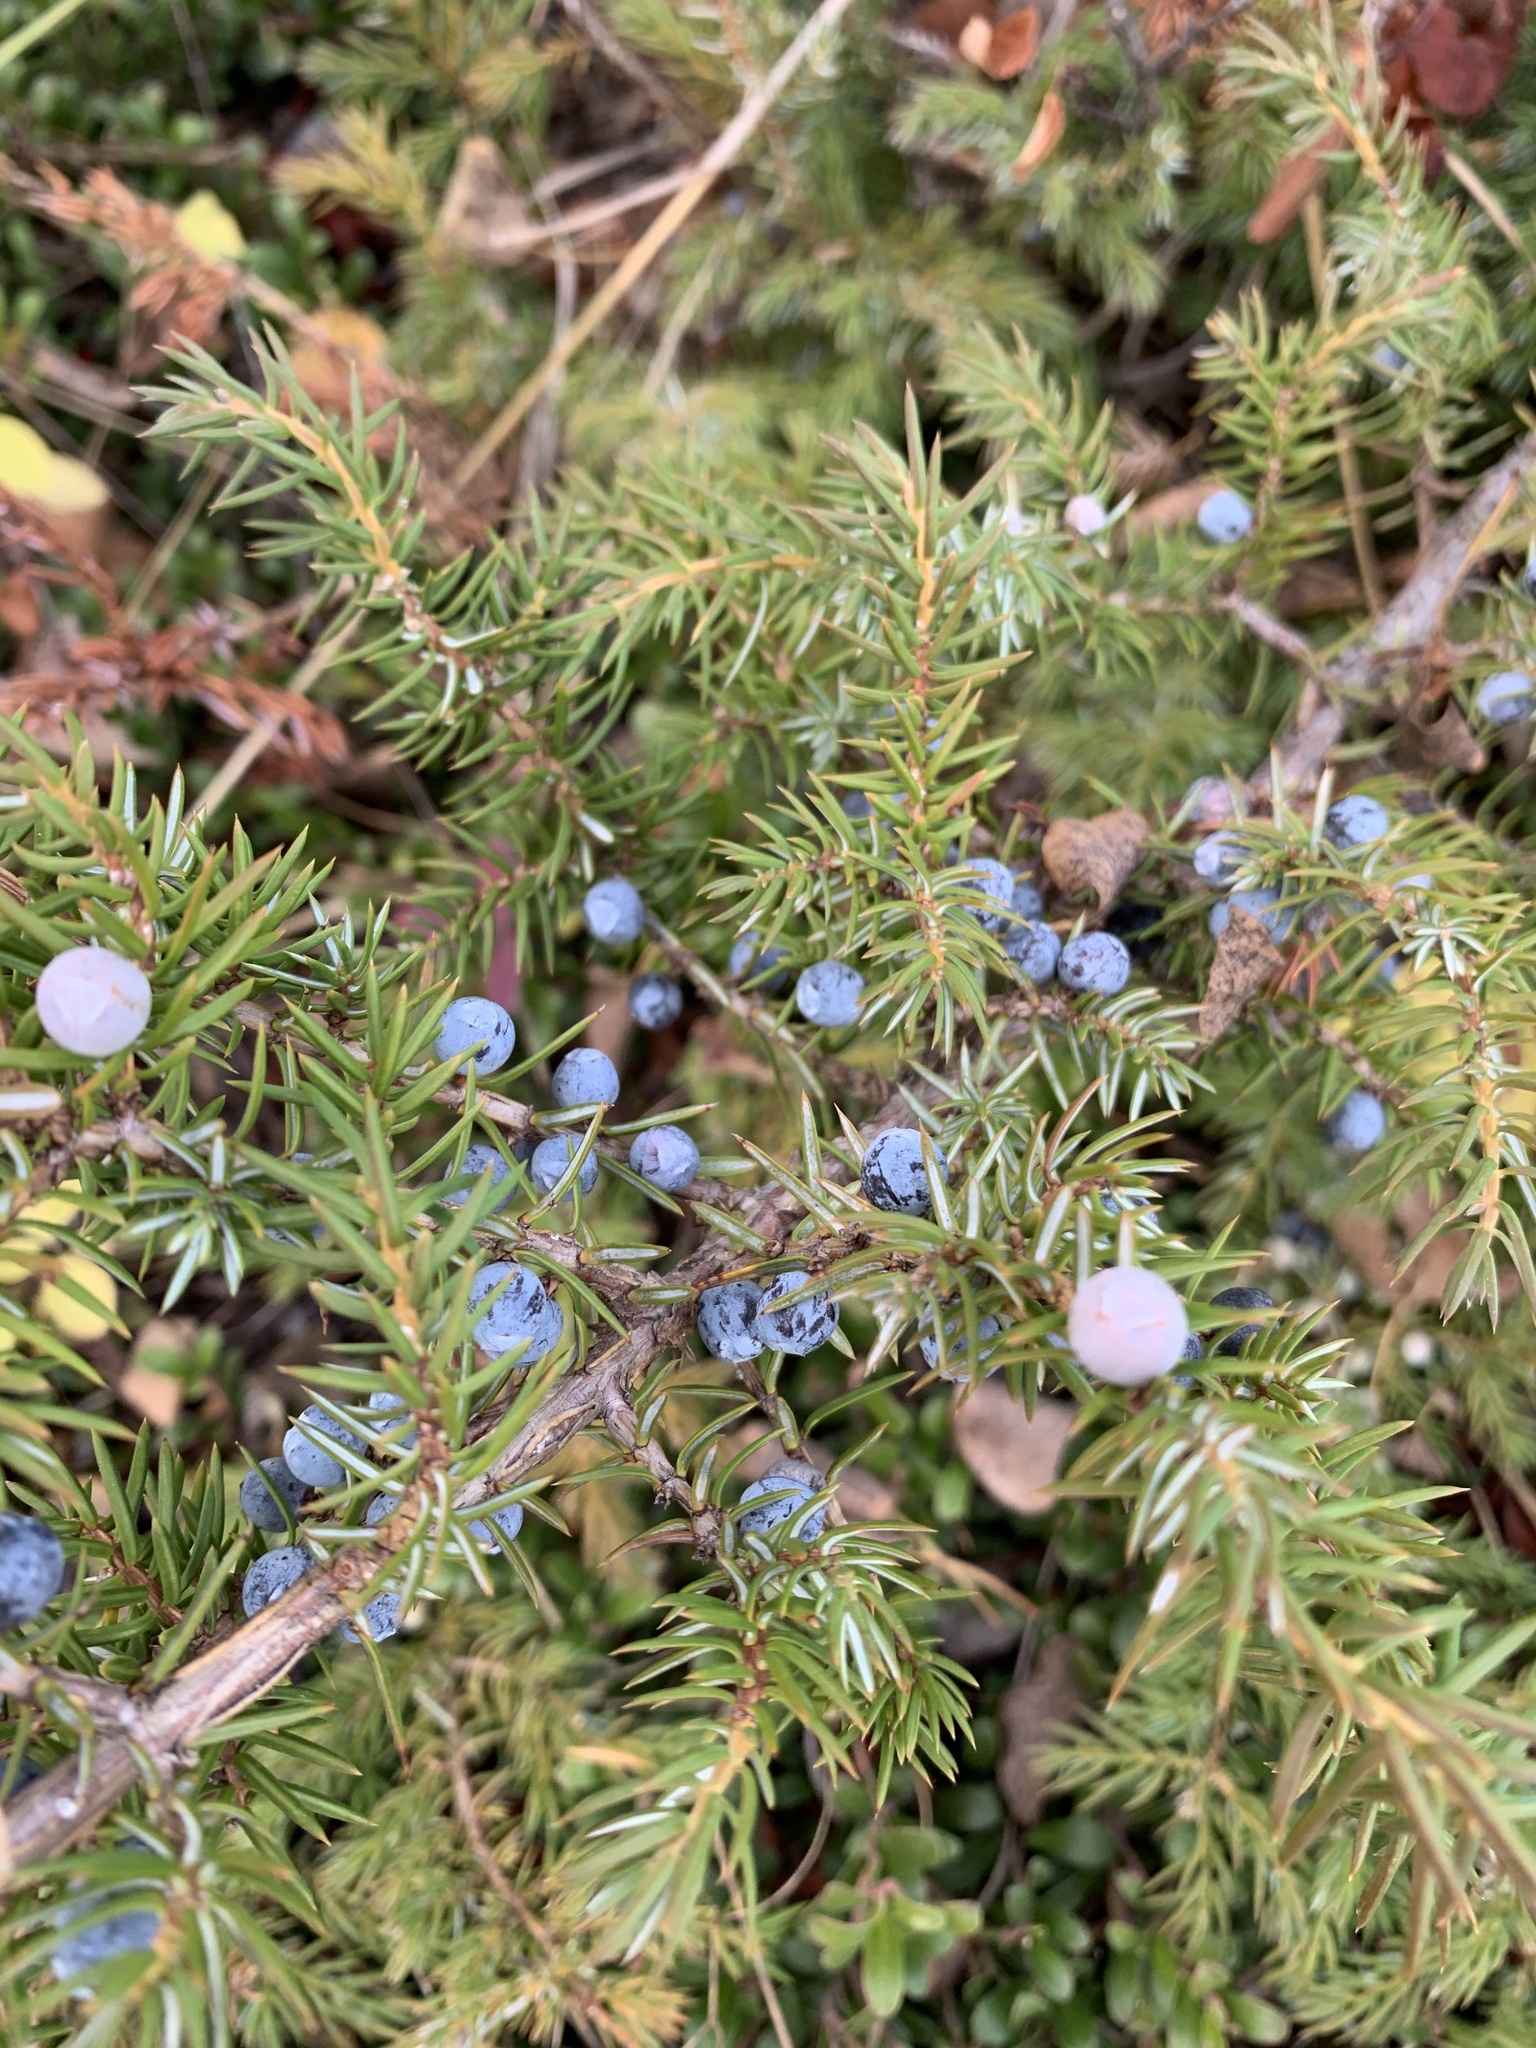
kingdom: Plantae
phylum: Tracheophyta
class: Pinopsida
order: Pinales
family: Cupressaceae
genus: Juniperus
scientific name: Juniperus communis
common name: Common juniper
